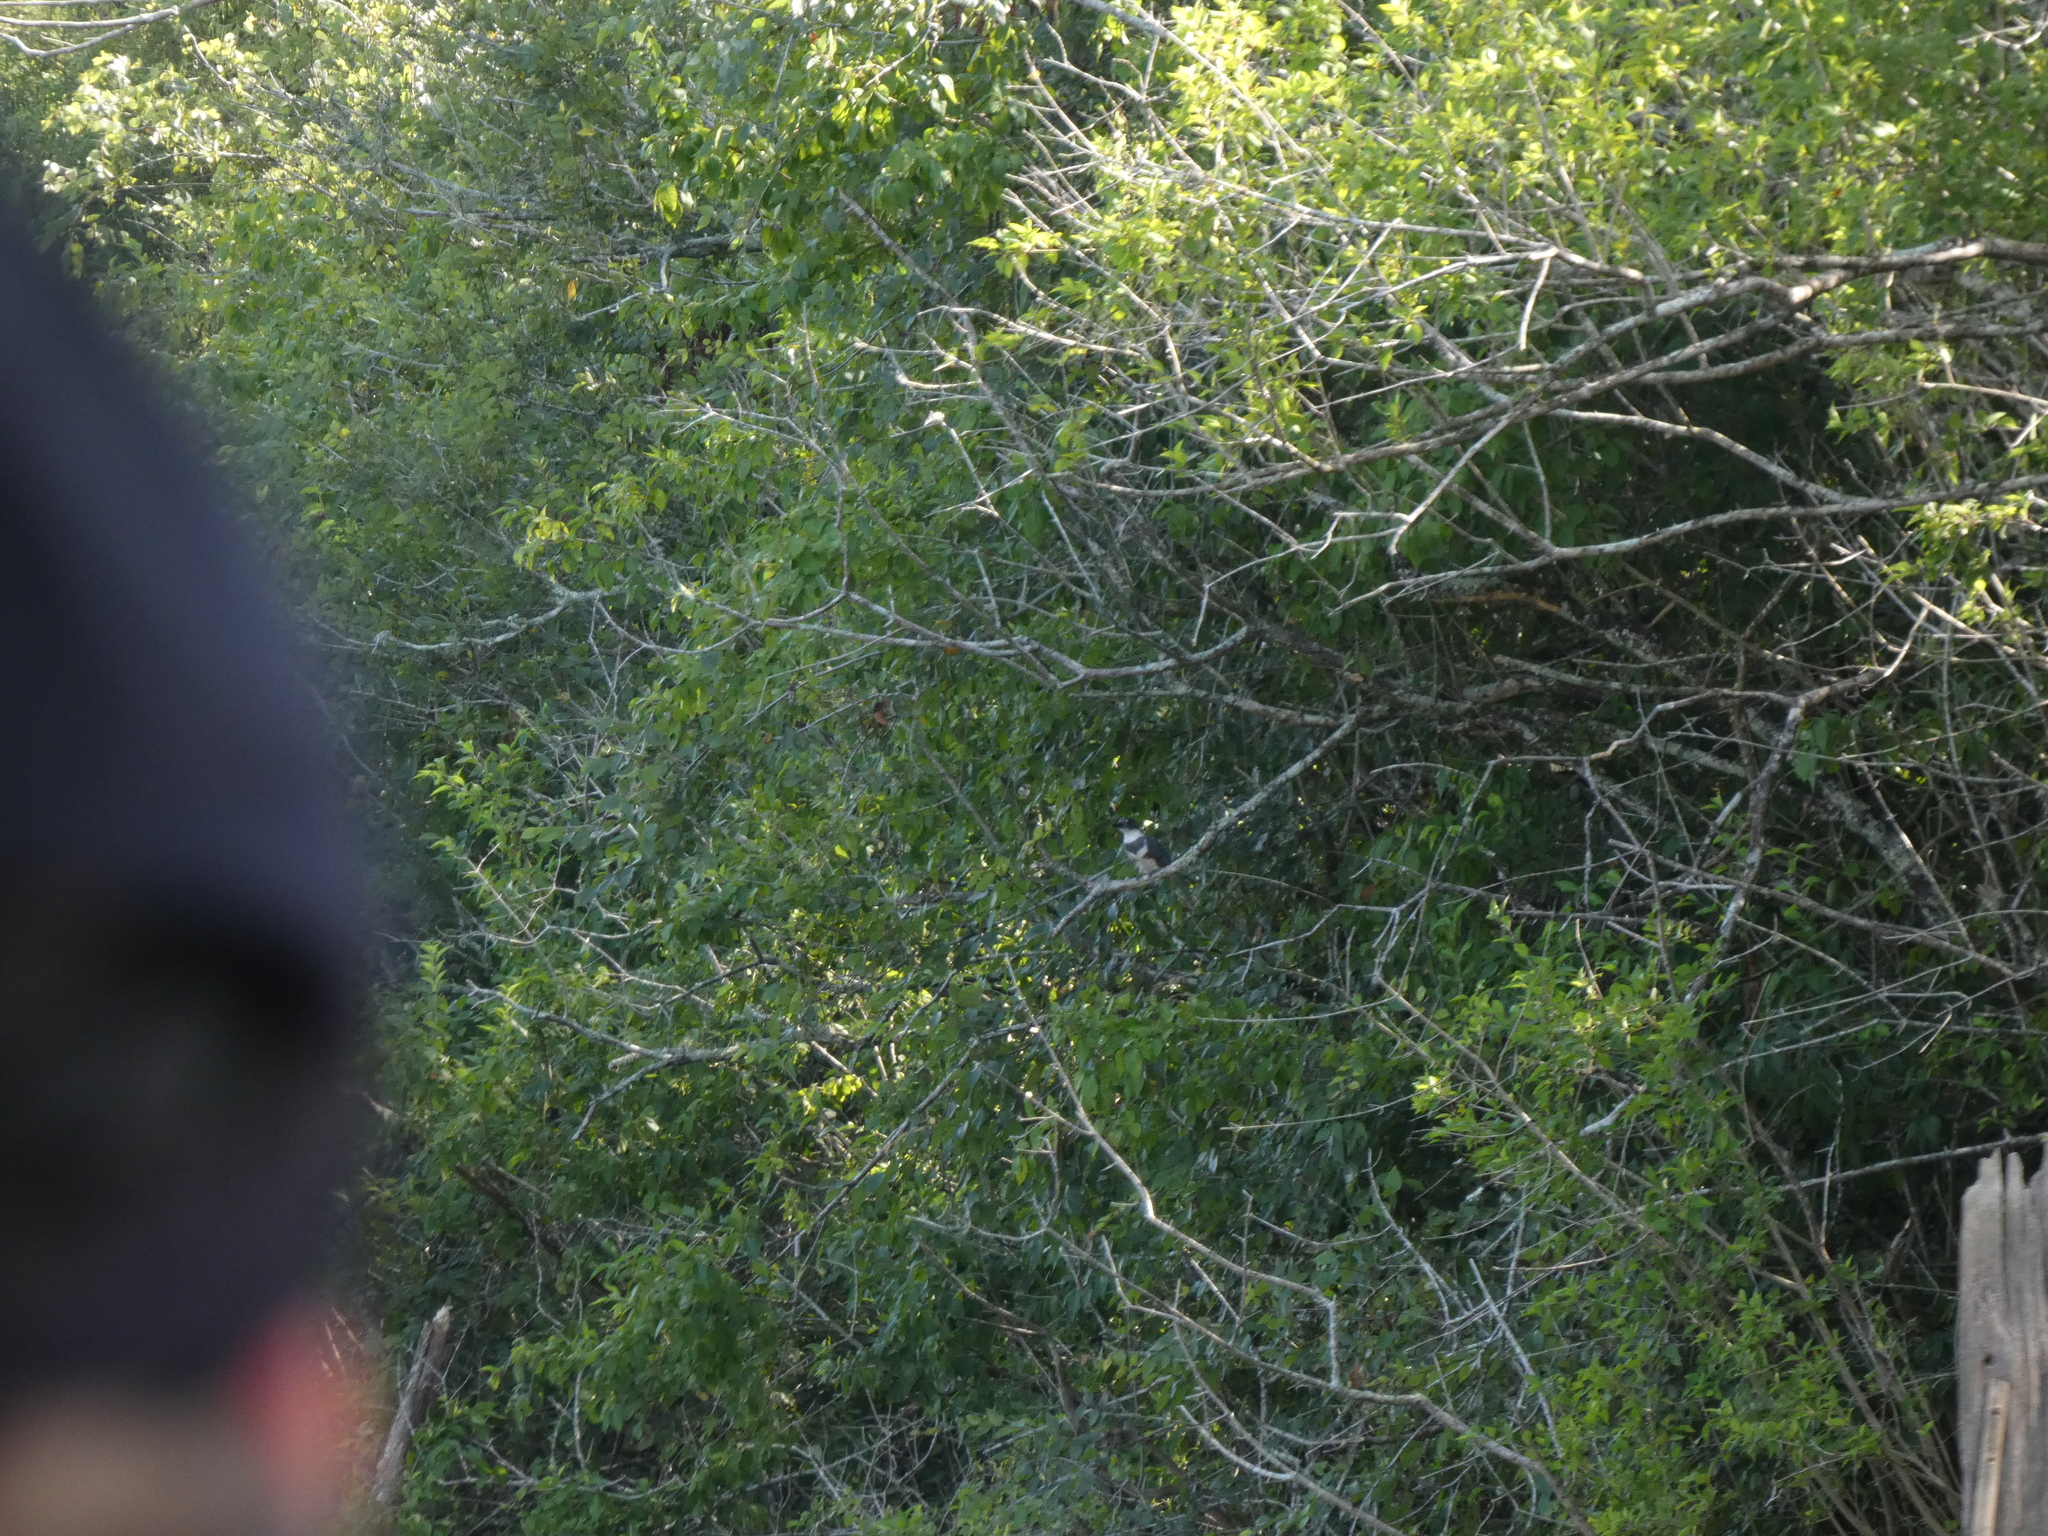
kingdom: Animalia
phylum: Chordata
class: Aves
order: Coraciiformes
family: Alcedinidae
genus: Megaceryle
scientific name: Megaceryle alcyon
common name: Belted kingfisher
